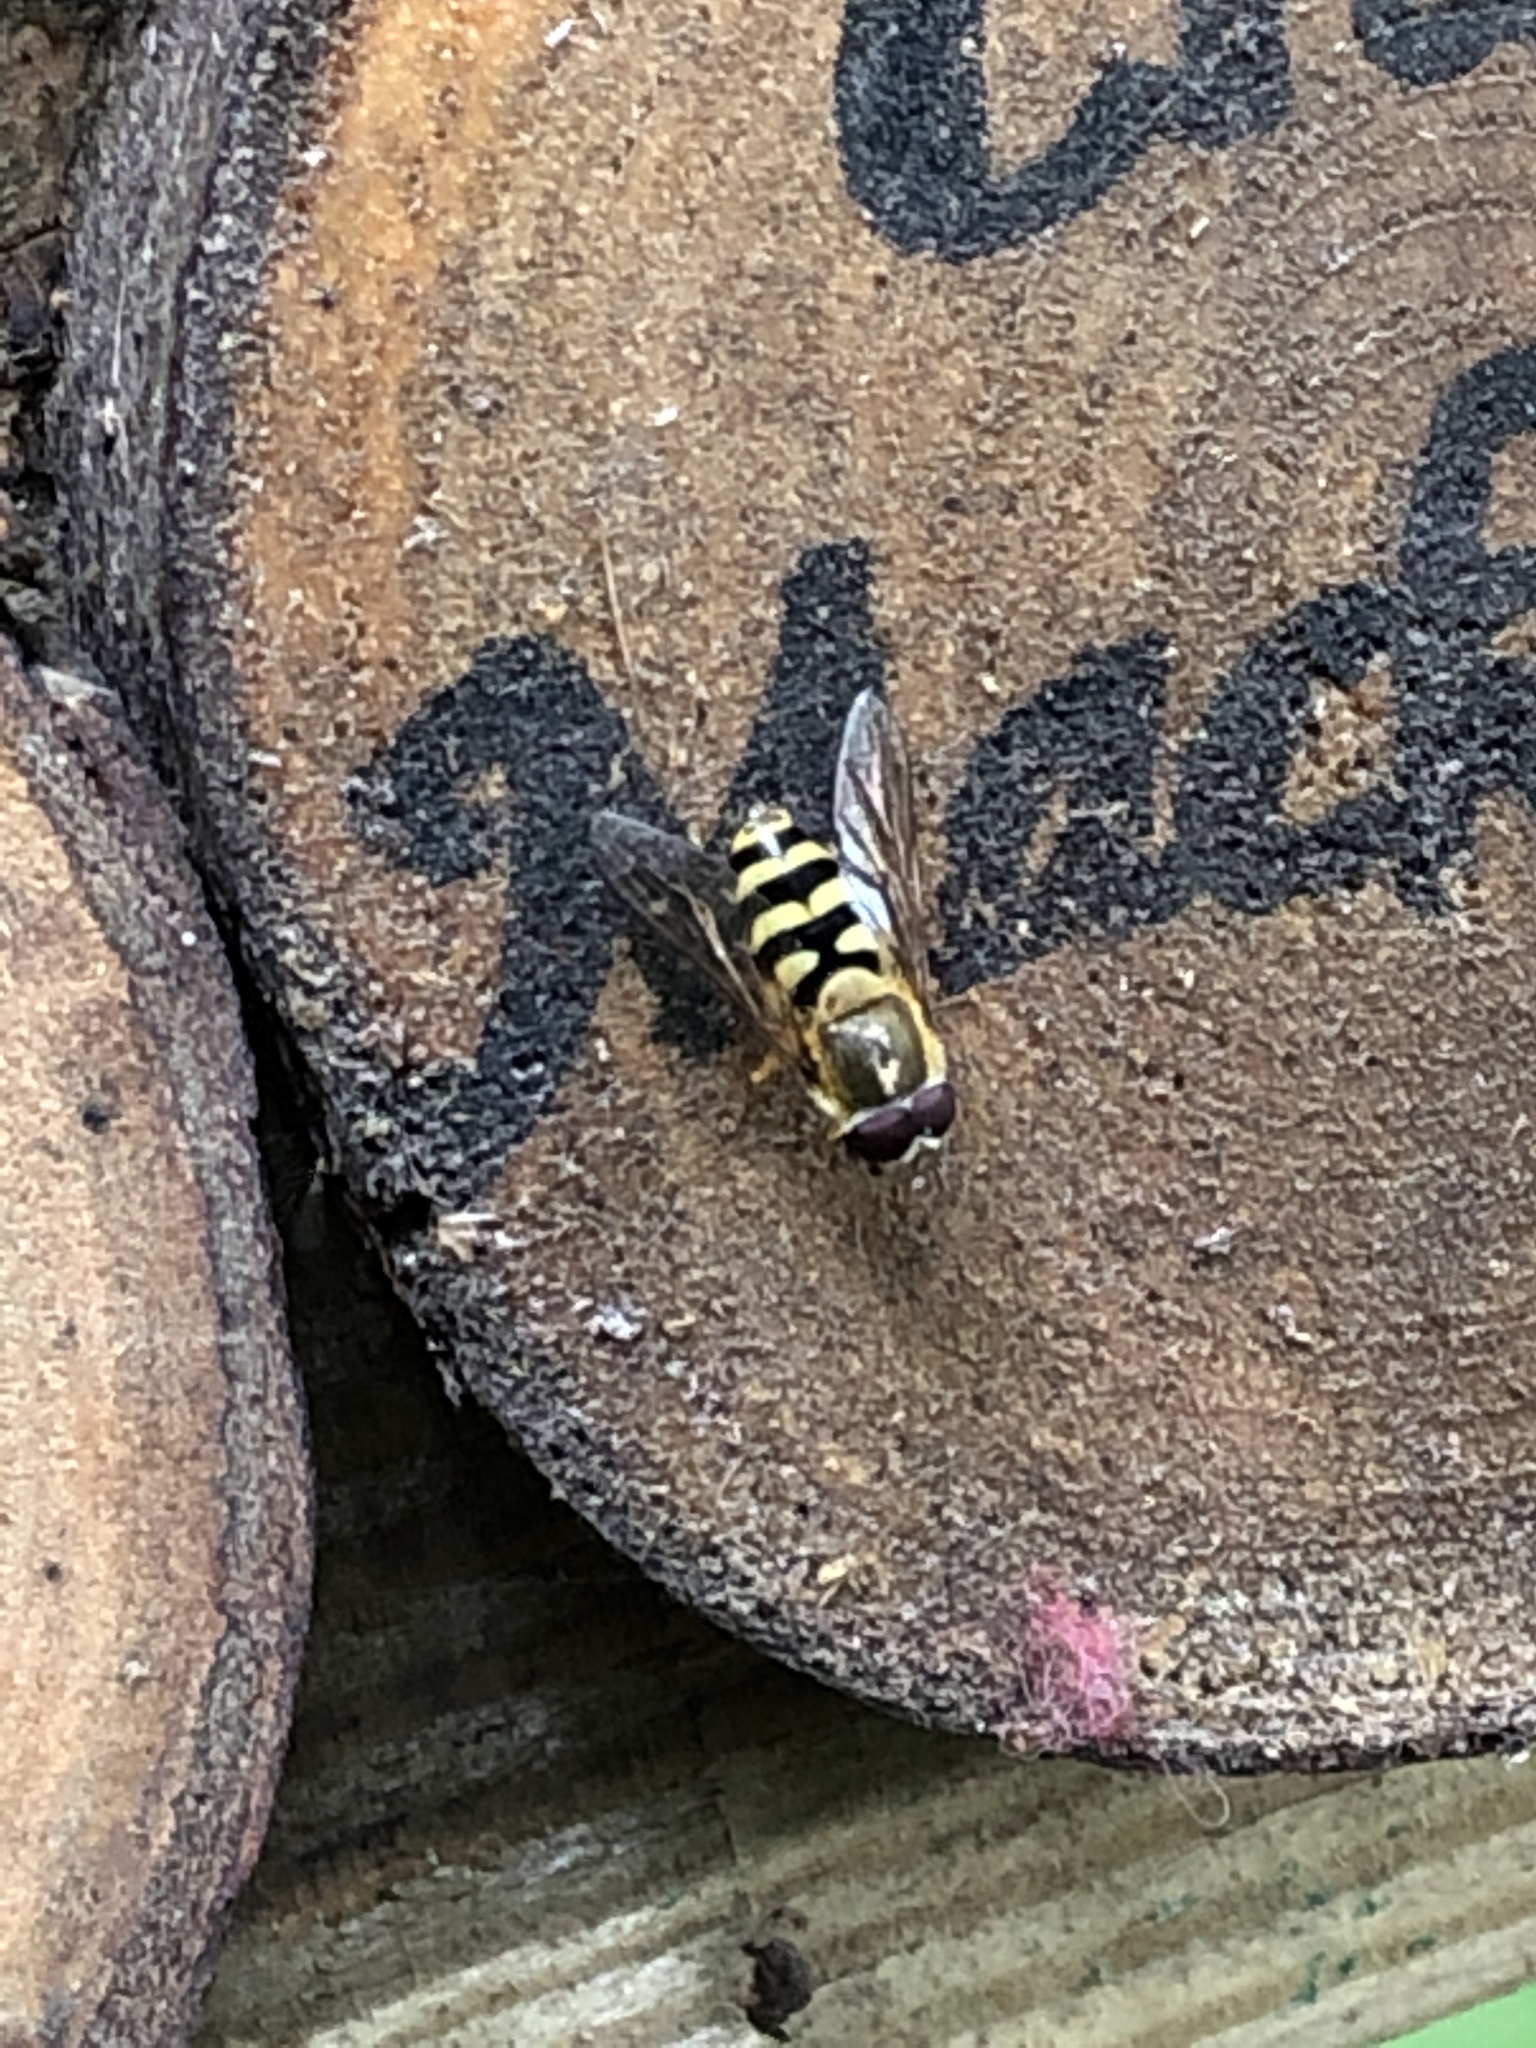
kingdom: Animalia
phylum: Arthropoda
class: Insecta
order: Diptera
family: Syrphidae
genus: Syrphus
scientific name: Syrphus
